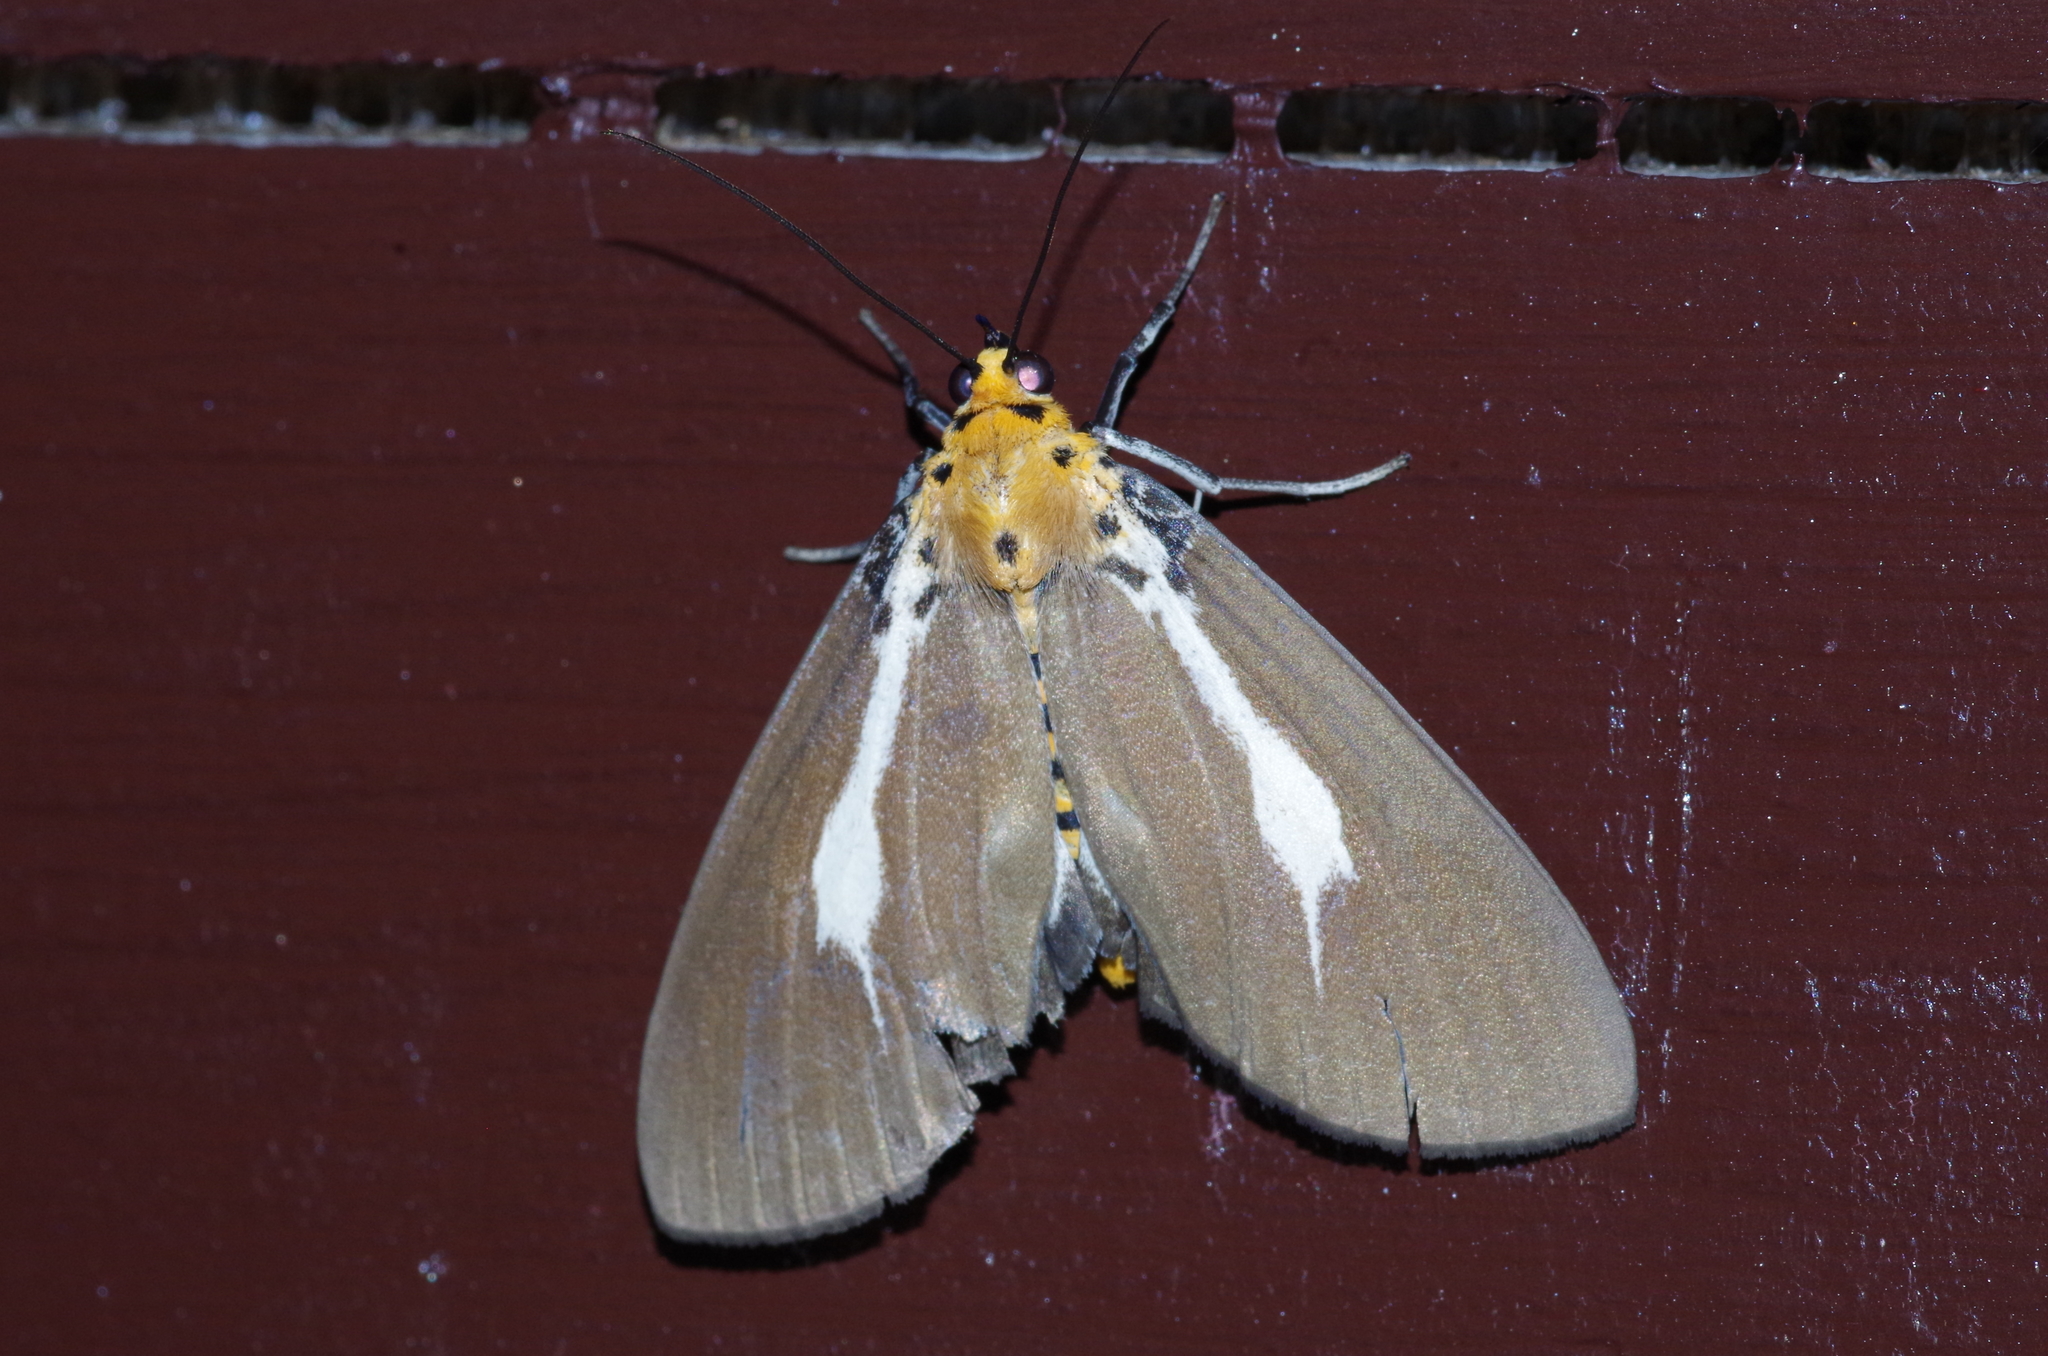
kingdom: Animalia
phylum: Arthropoda
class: Insecta
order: Lepidoptera
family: Erebidae
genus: Asota
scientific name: Asota heliconia
